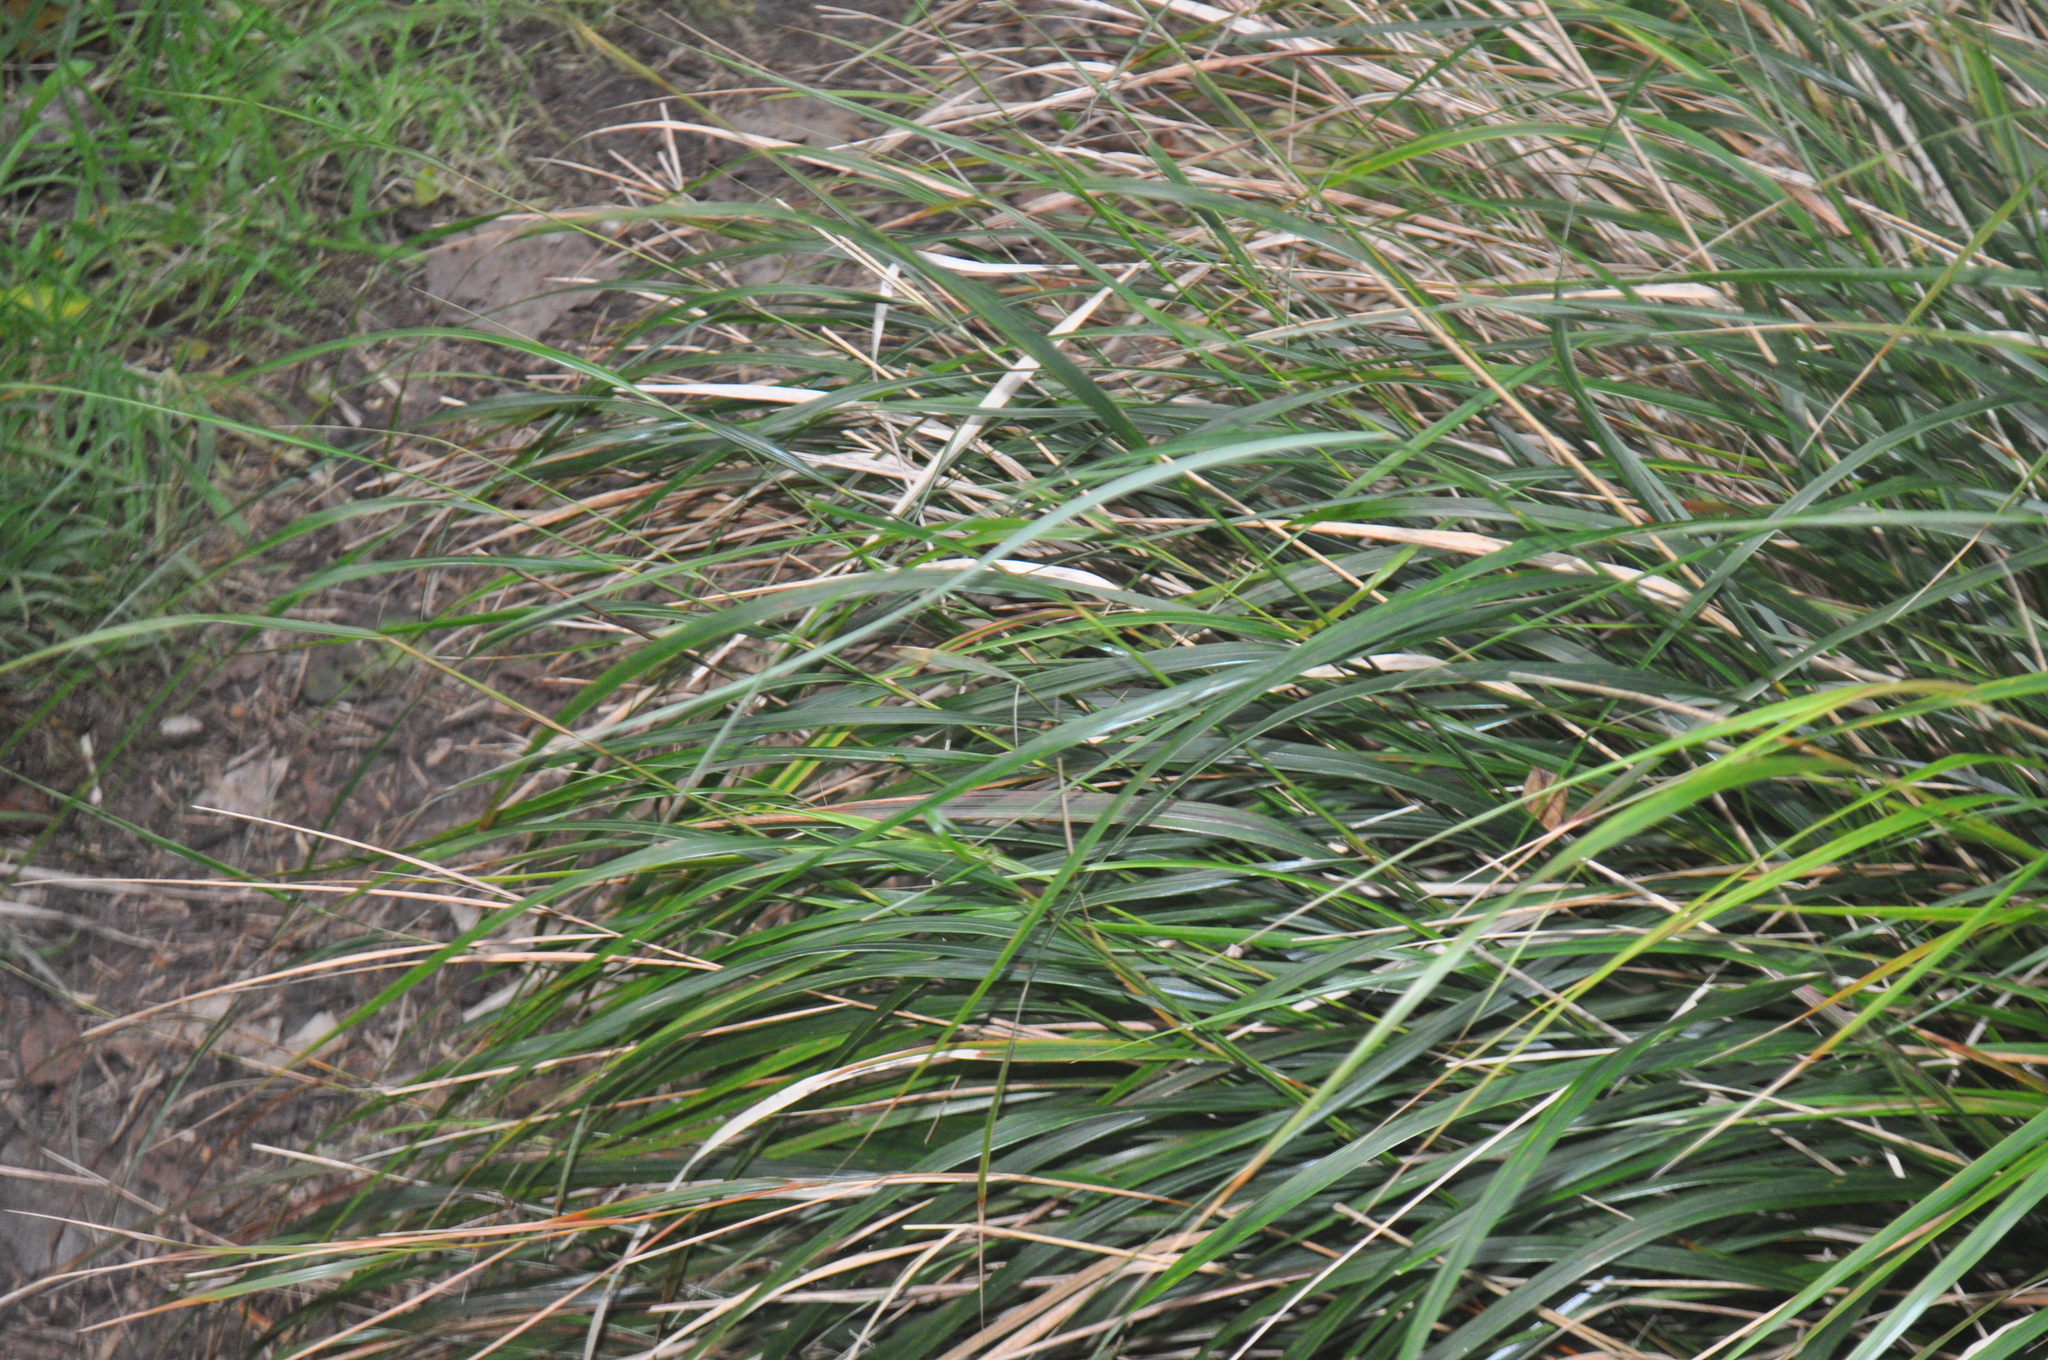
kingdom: Plantae
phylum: Tracheophyta
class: Liliopsida
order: Poales
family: Poaceae
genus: Anemanthele
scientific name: Anemanthele lessoniana
